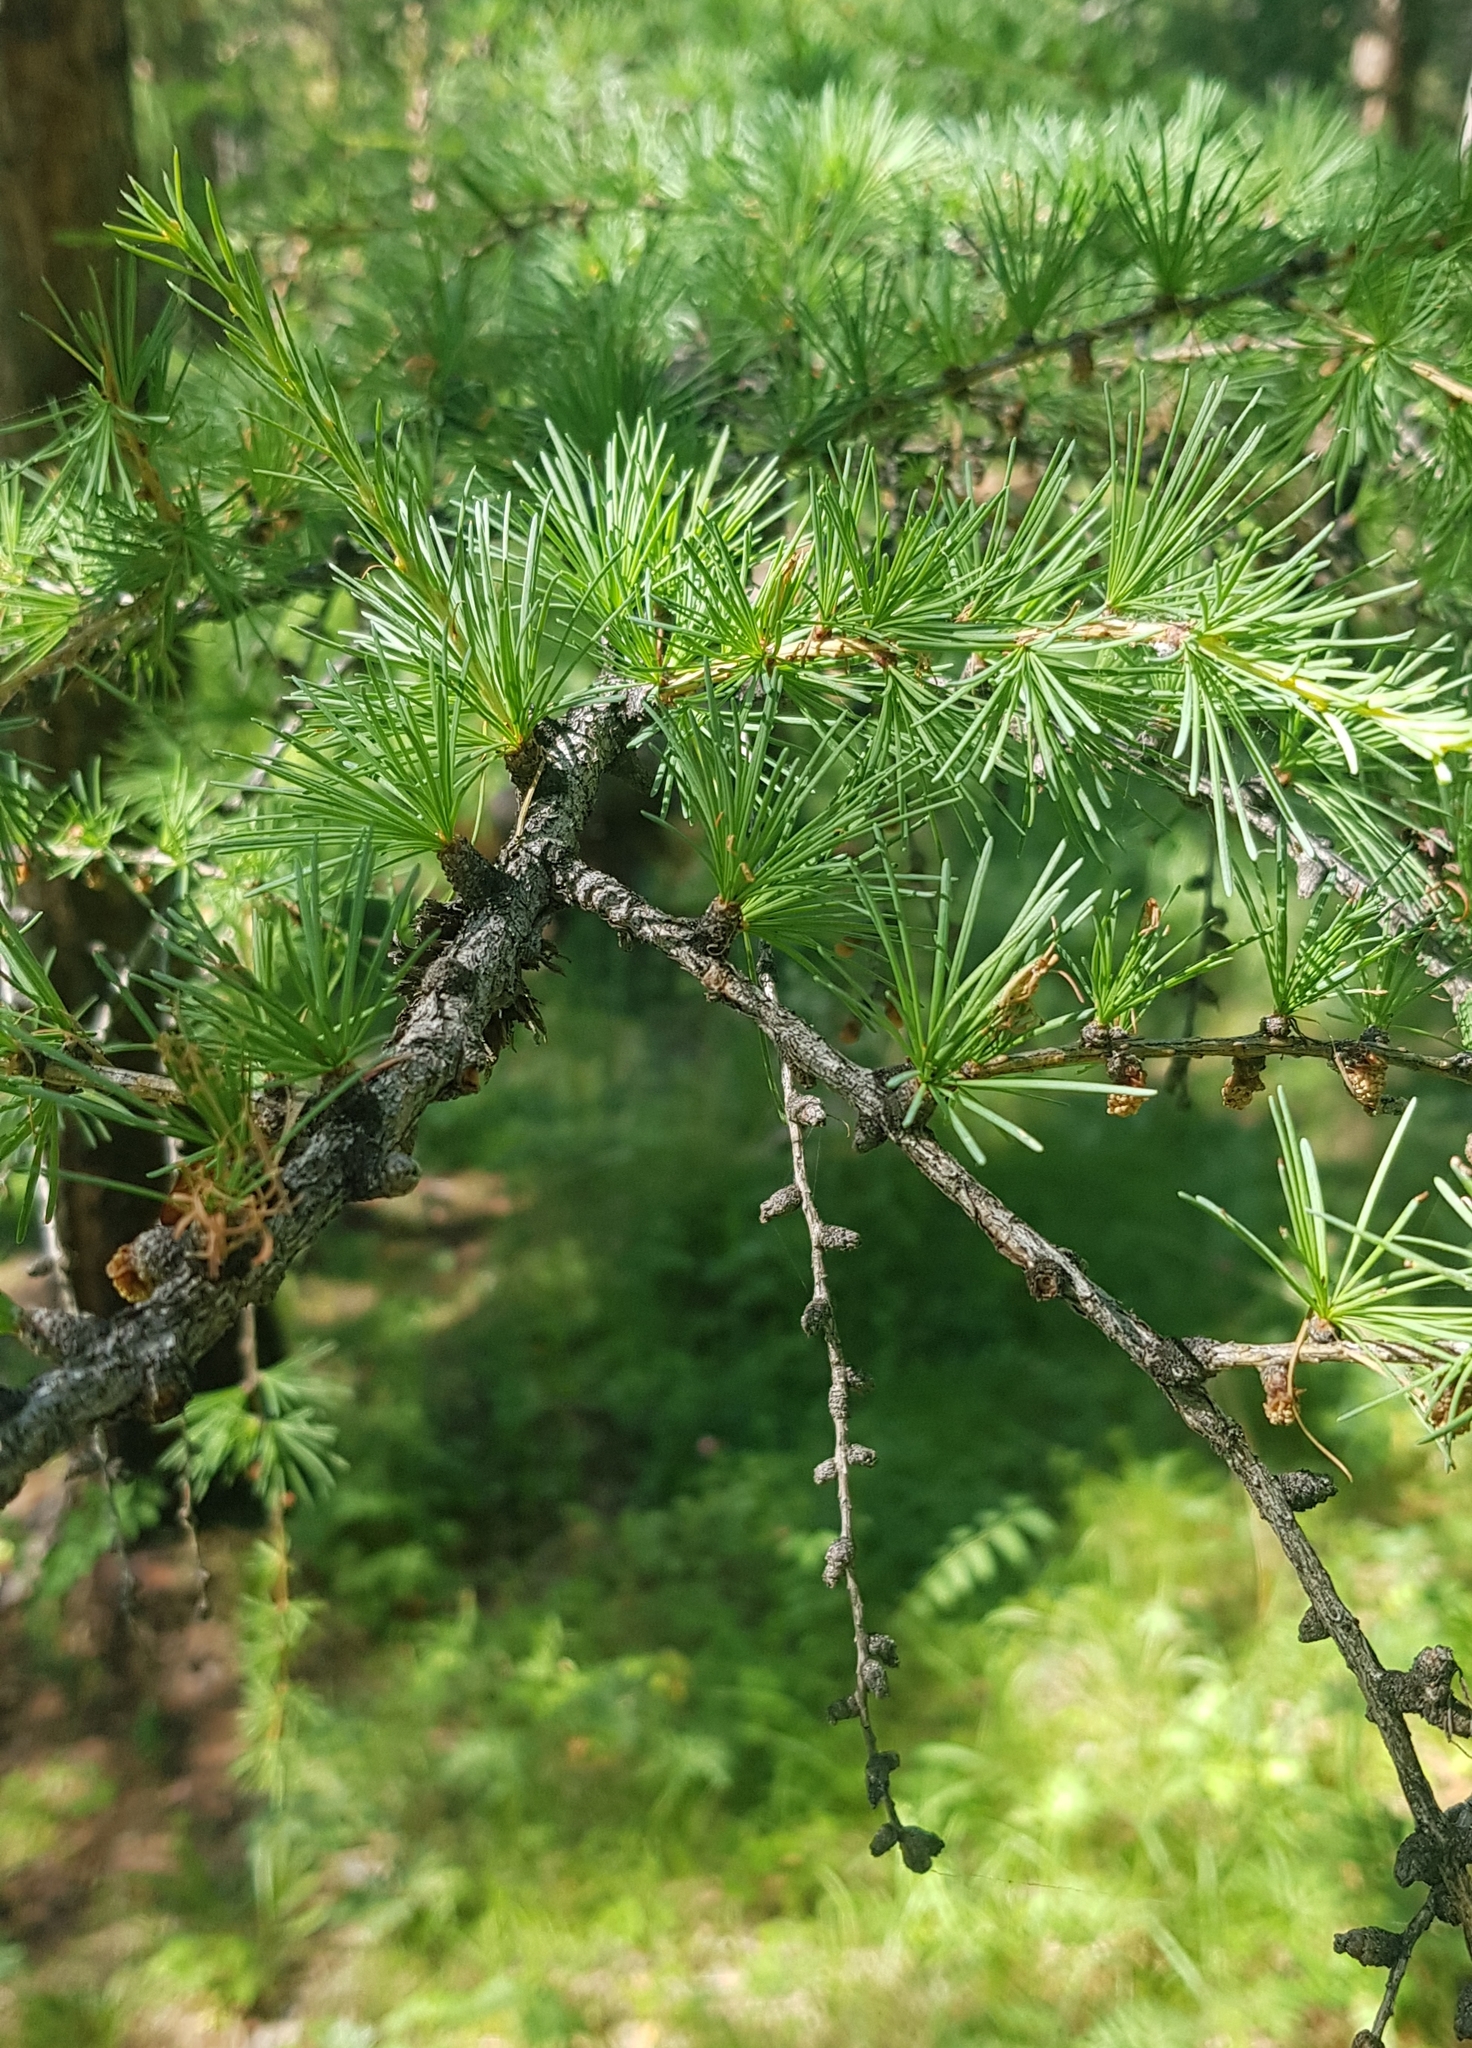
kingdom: Plantae
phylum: Tracheophyta
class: Pinopsida
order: Pinales
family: Pinaceae
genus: Larix
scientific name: Larix sibirica
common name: Siberian larch
